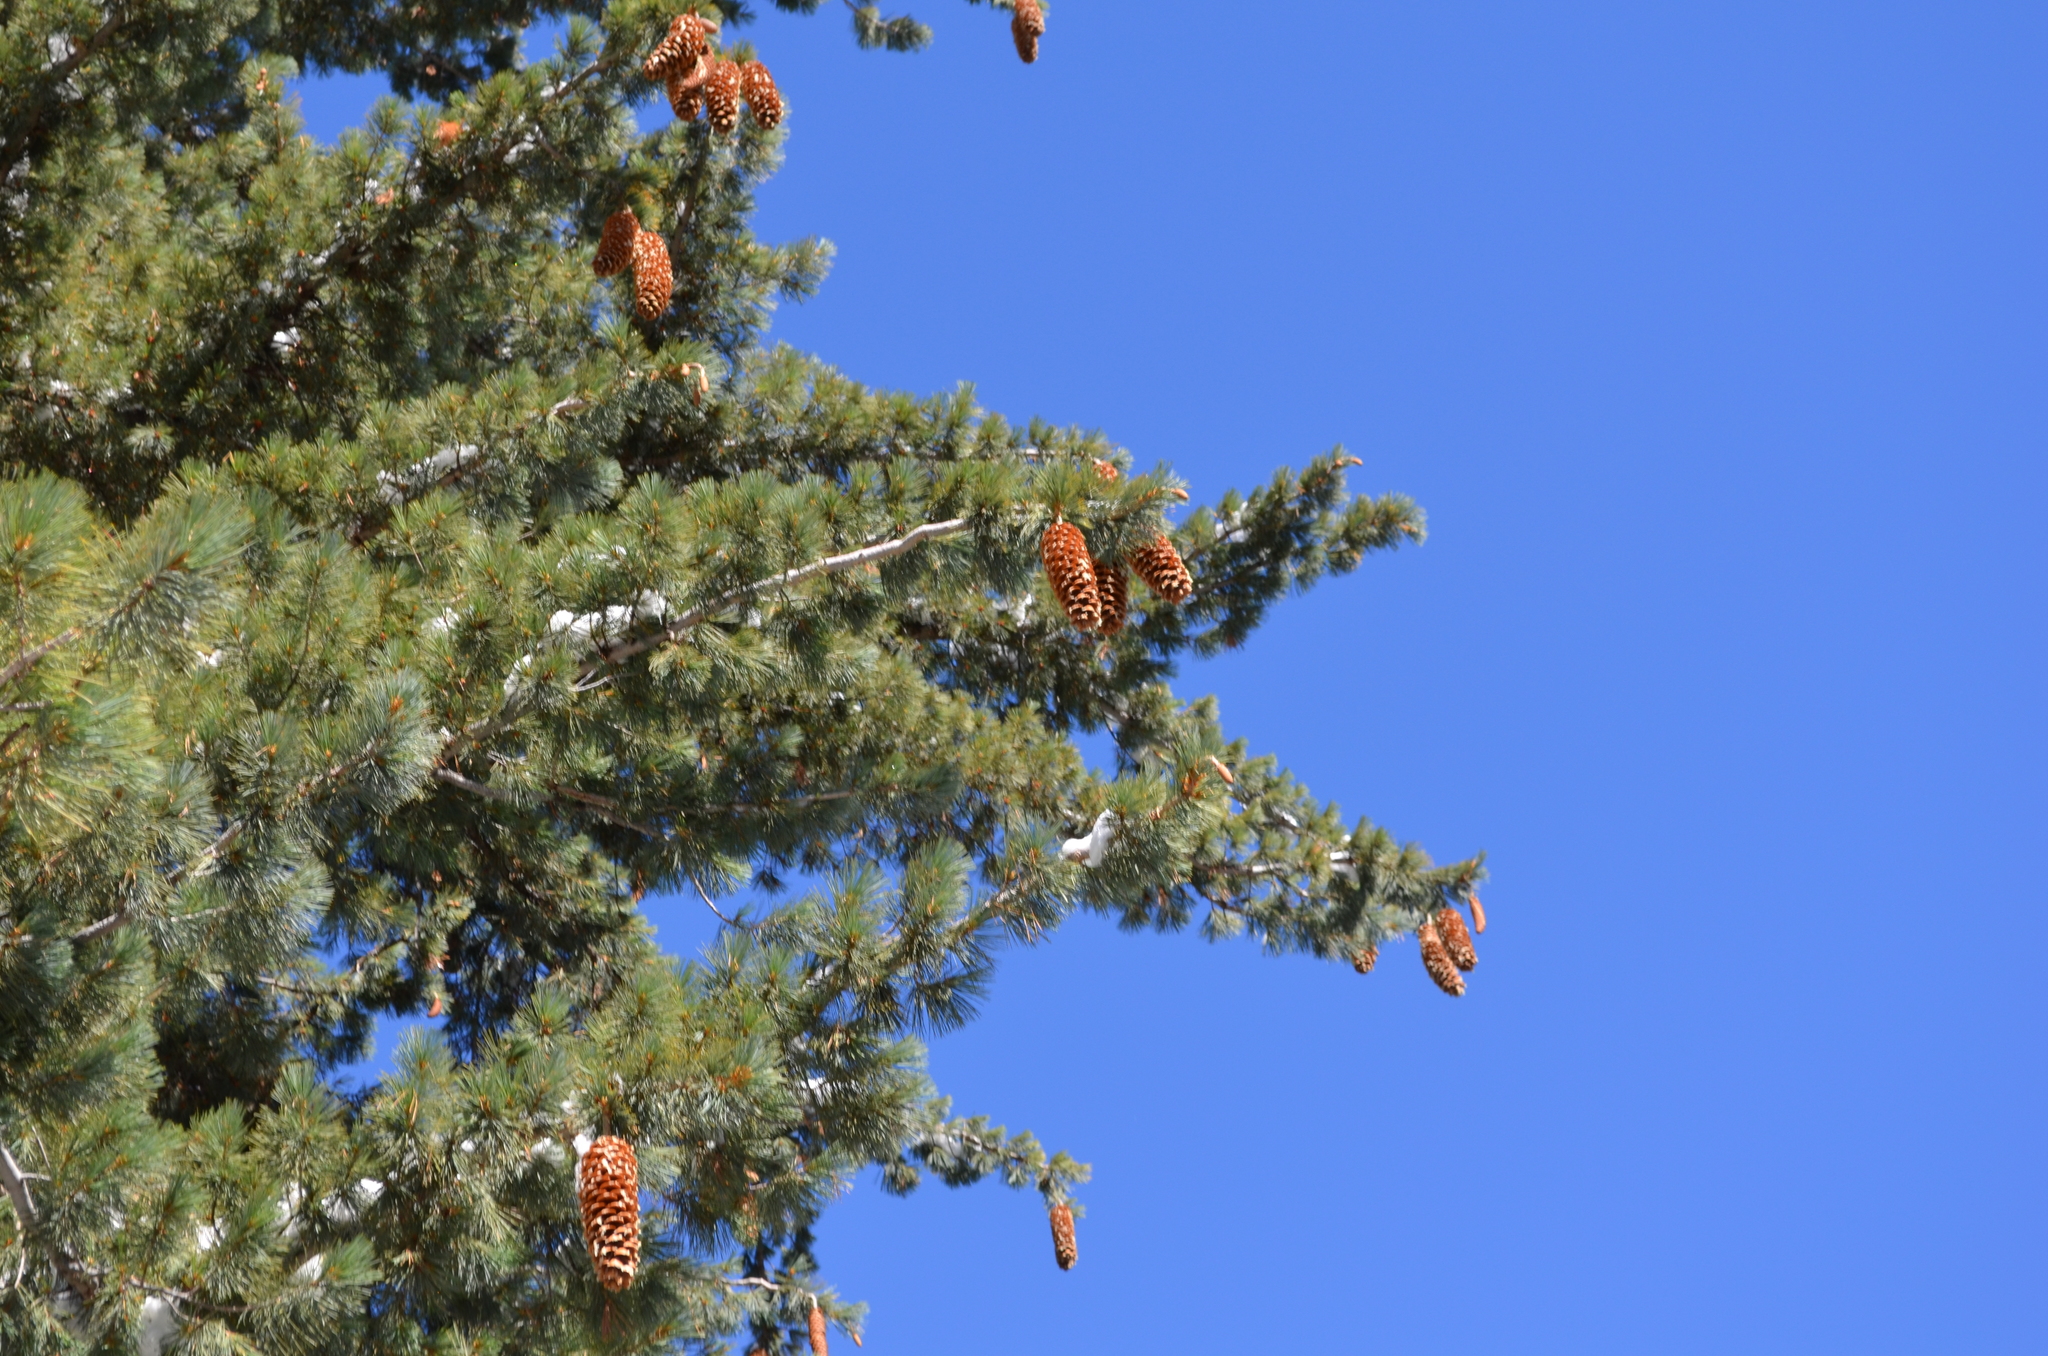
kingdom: Plantae
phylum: Tracheophyta
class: Pinopsida
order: Pinales
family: Pinaceae
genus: Pinus
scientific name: Pinus lambertiana
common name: Sugar pine
